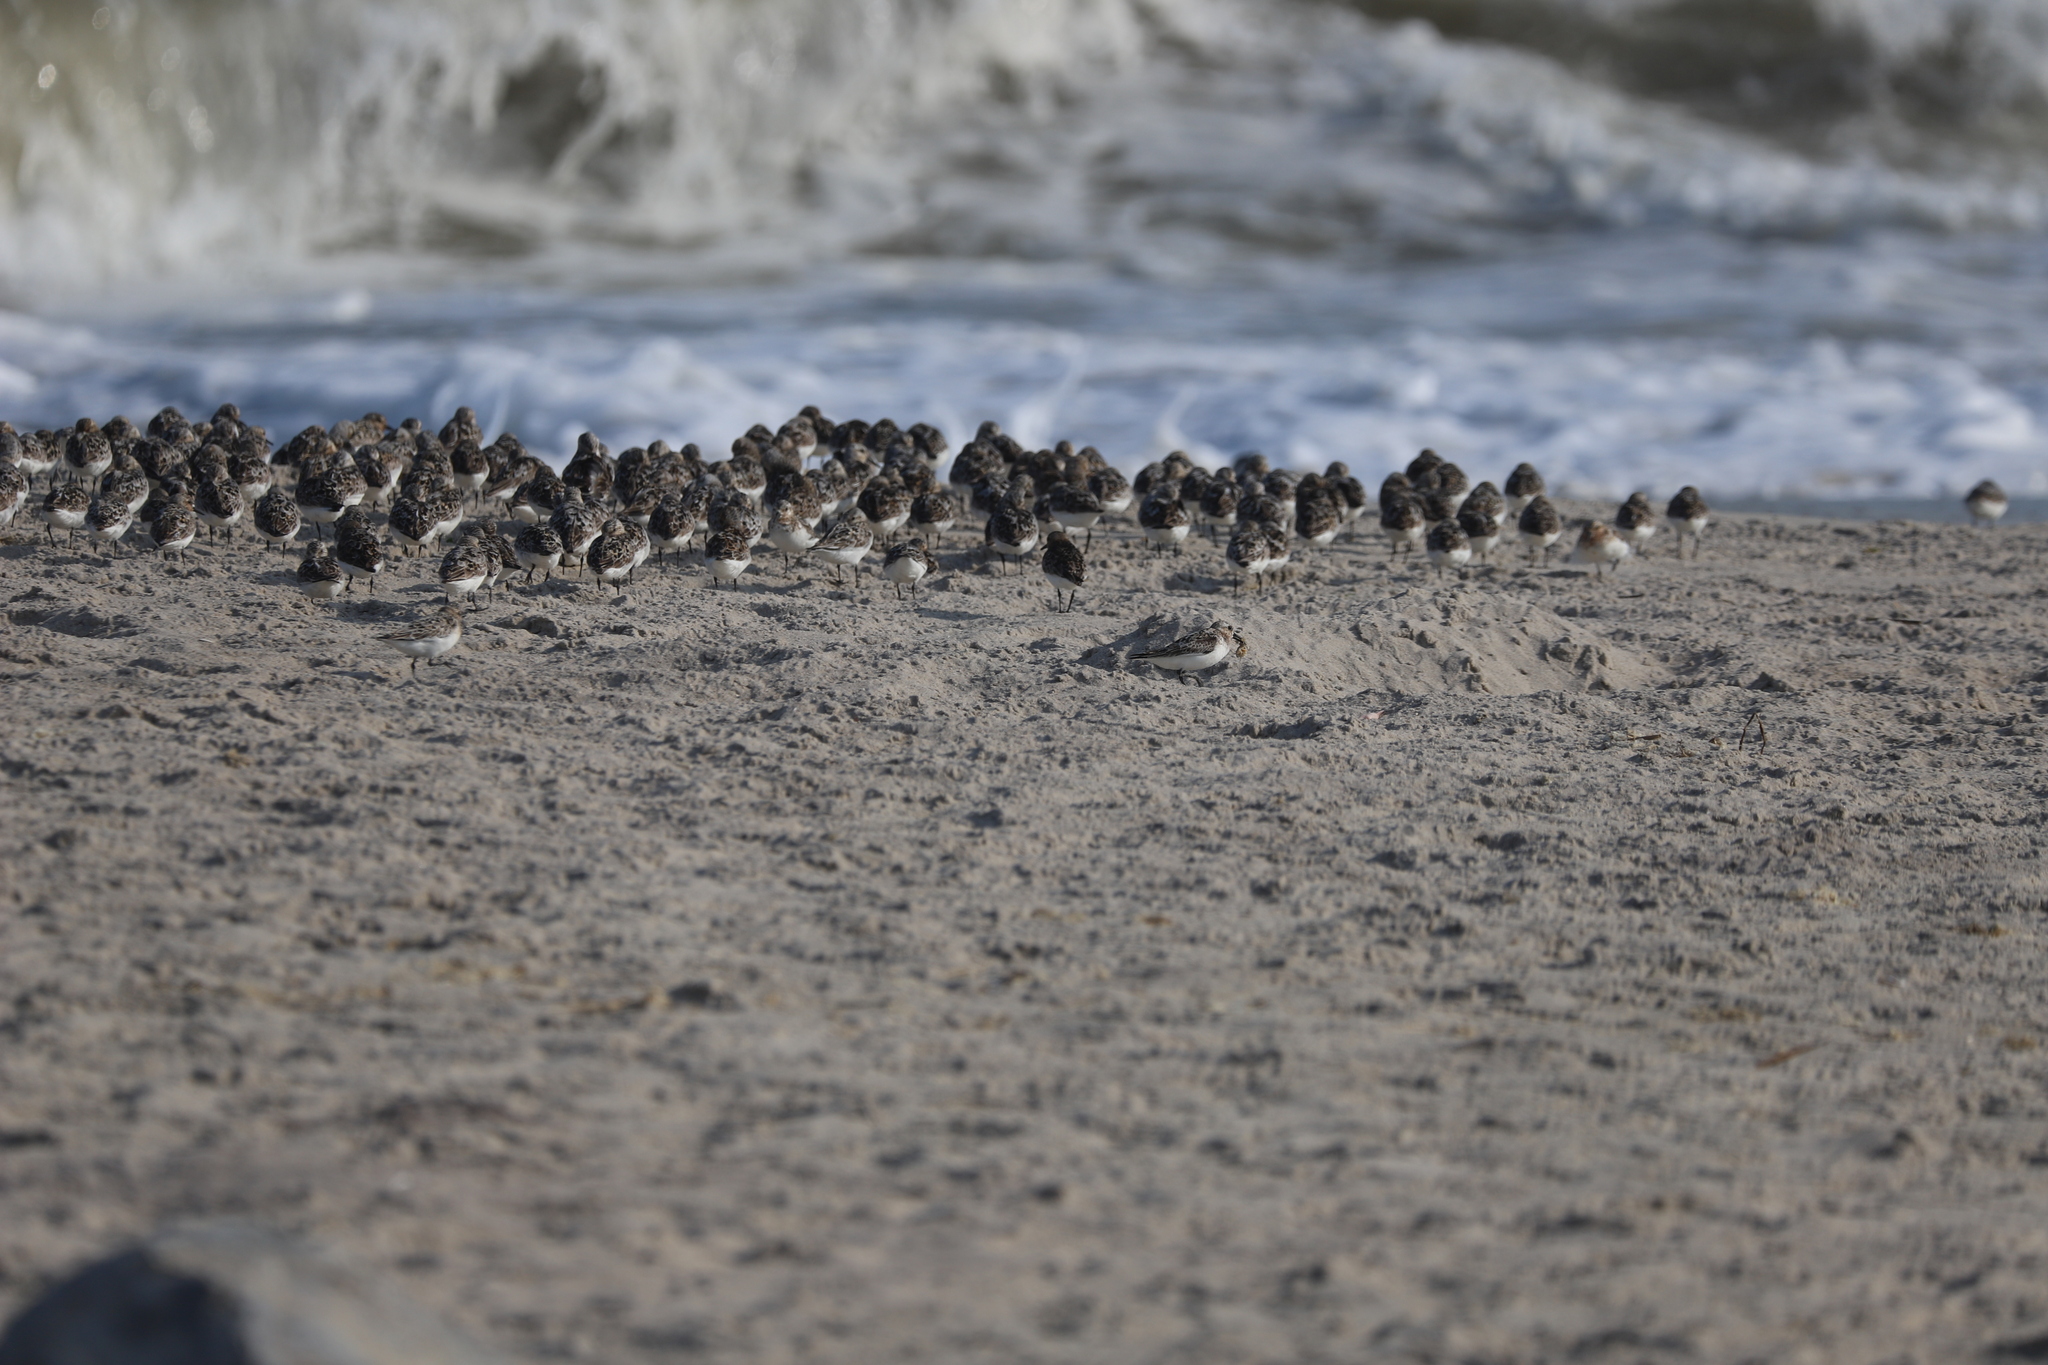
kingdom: Animalia
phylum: Chordata
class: Aves
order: Charadriiformes
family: Scolopacidae
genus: Calidris
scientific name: Calidris alba
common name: Sanderling
